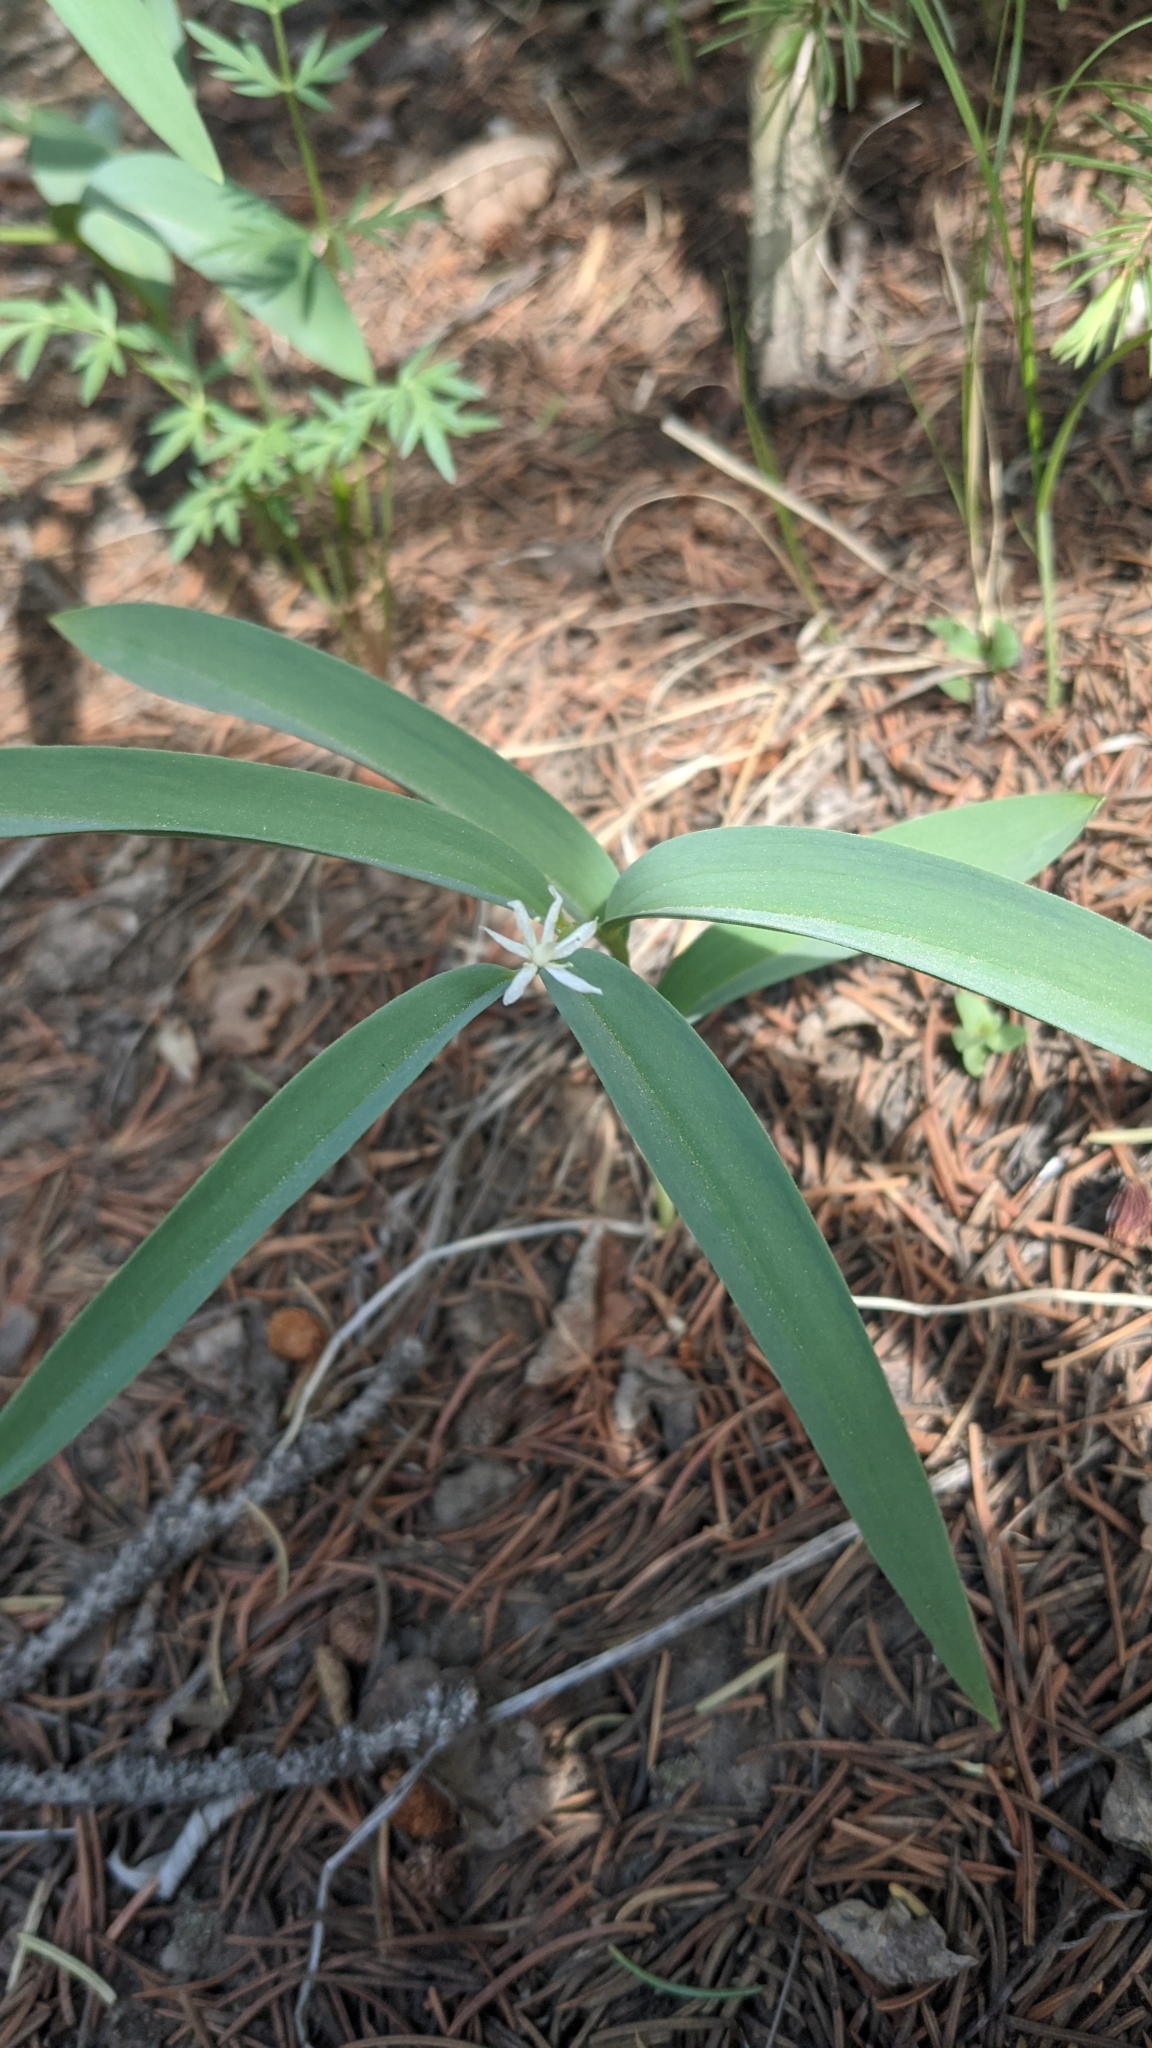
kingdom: Plantae
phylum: Tracheophyta
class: Liliopsida
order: Asparagales
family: Asparagaceae
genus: Maianthemum
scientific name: Maianthemum stellatum
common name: Little false solomon's seal
